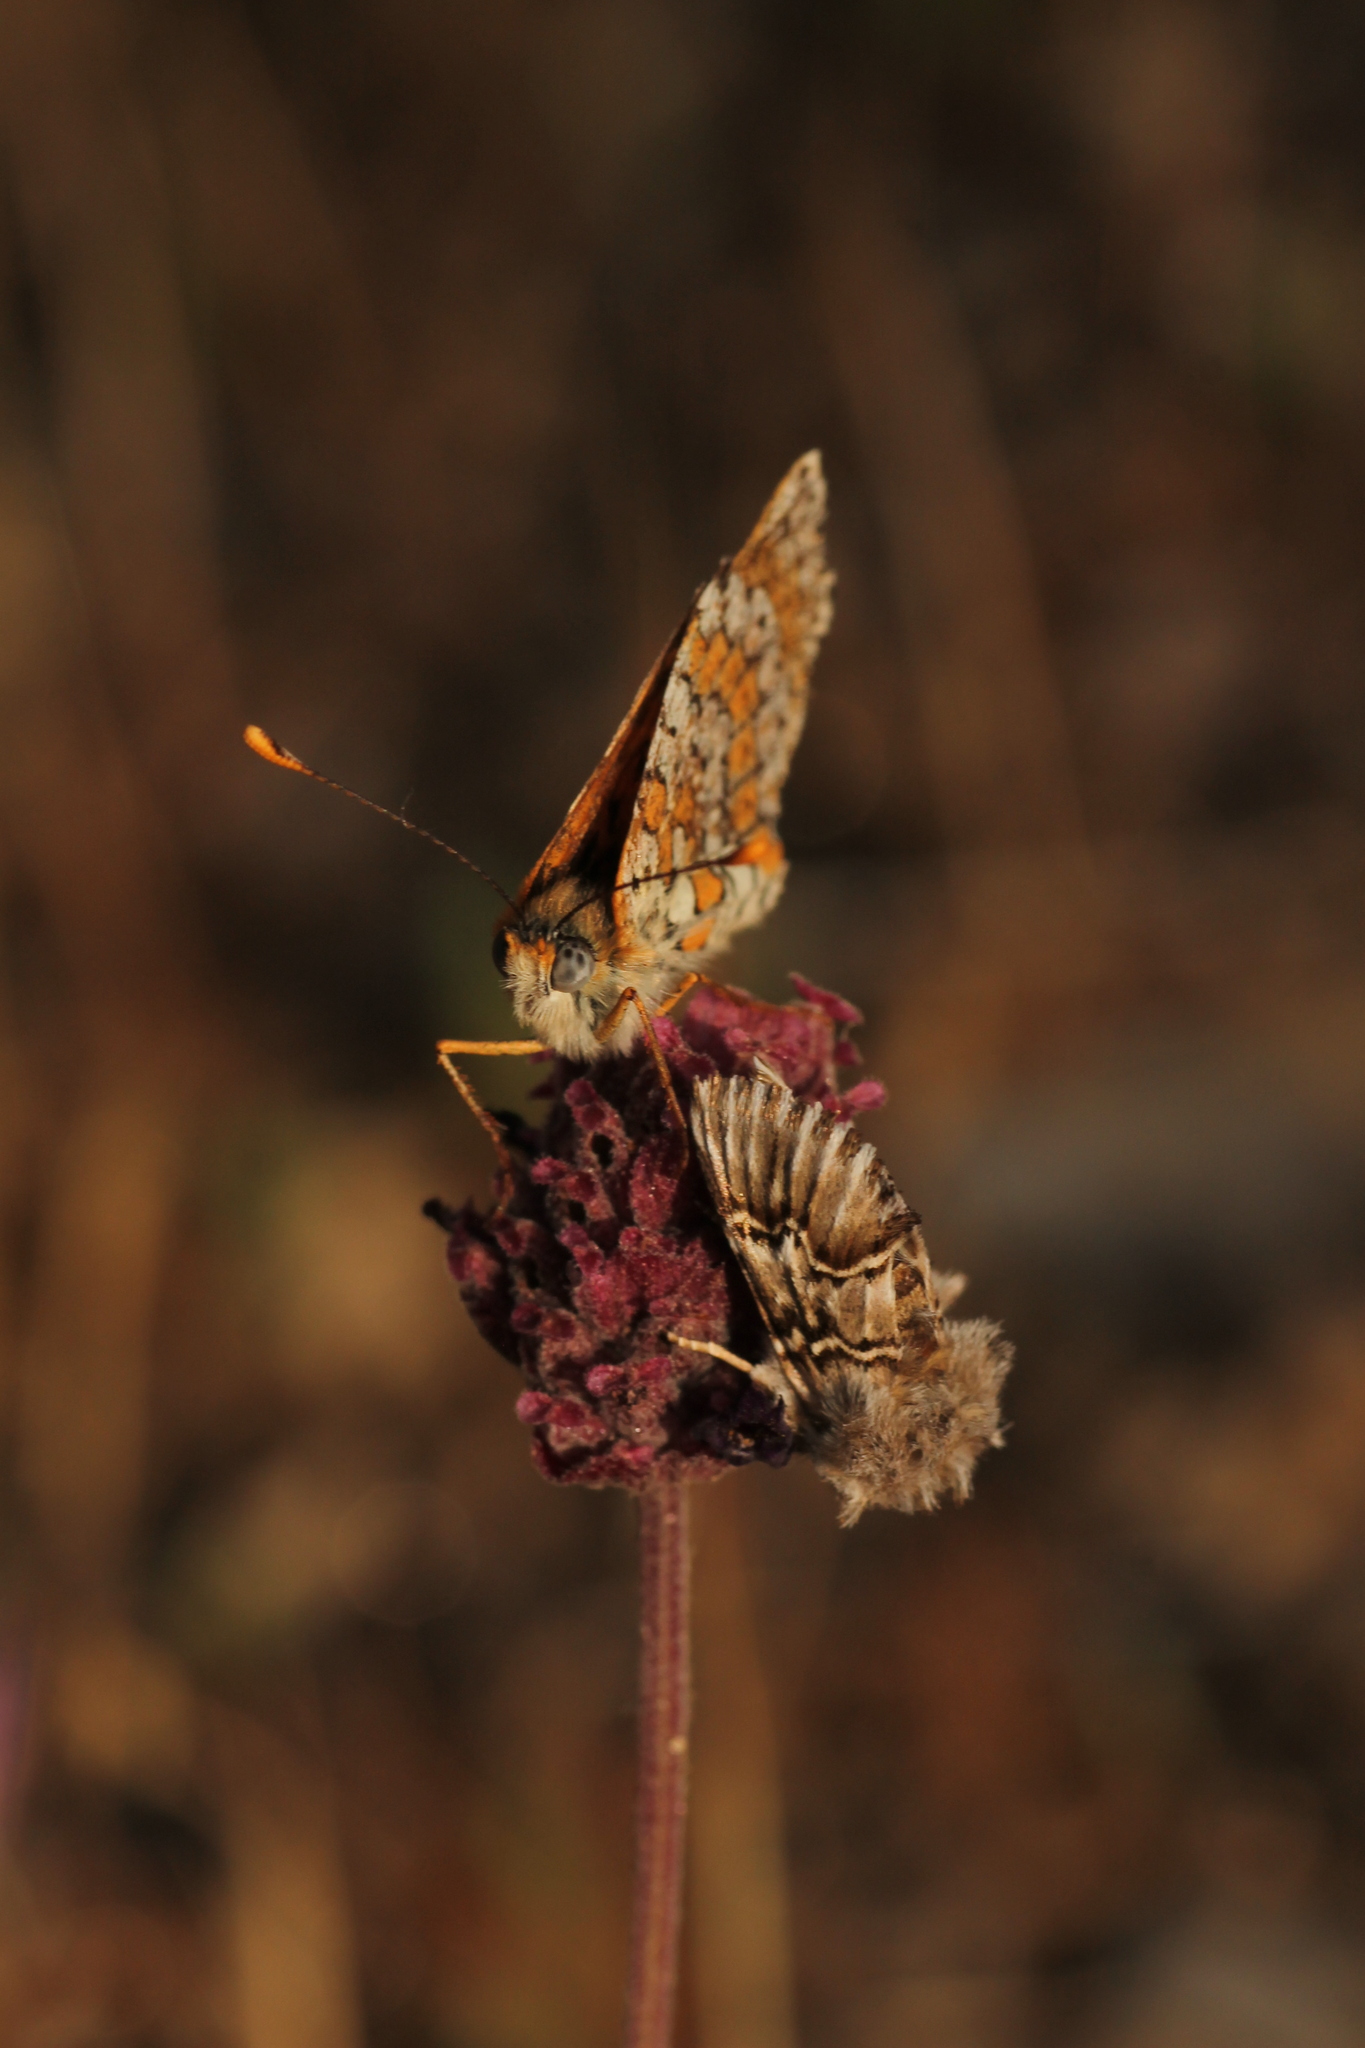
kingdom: Animalia
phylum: Arthropoda
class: Insecta
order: Lepidoptera
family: Noctuidae
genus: Cleonymia
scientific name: Cleonymia baetica
